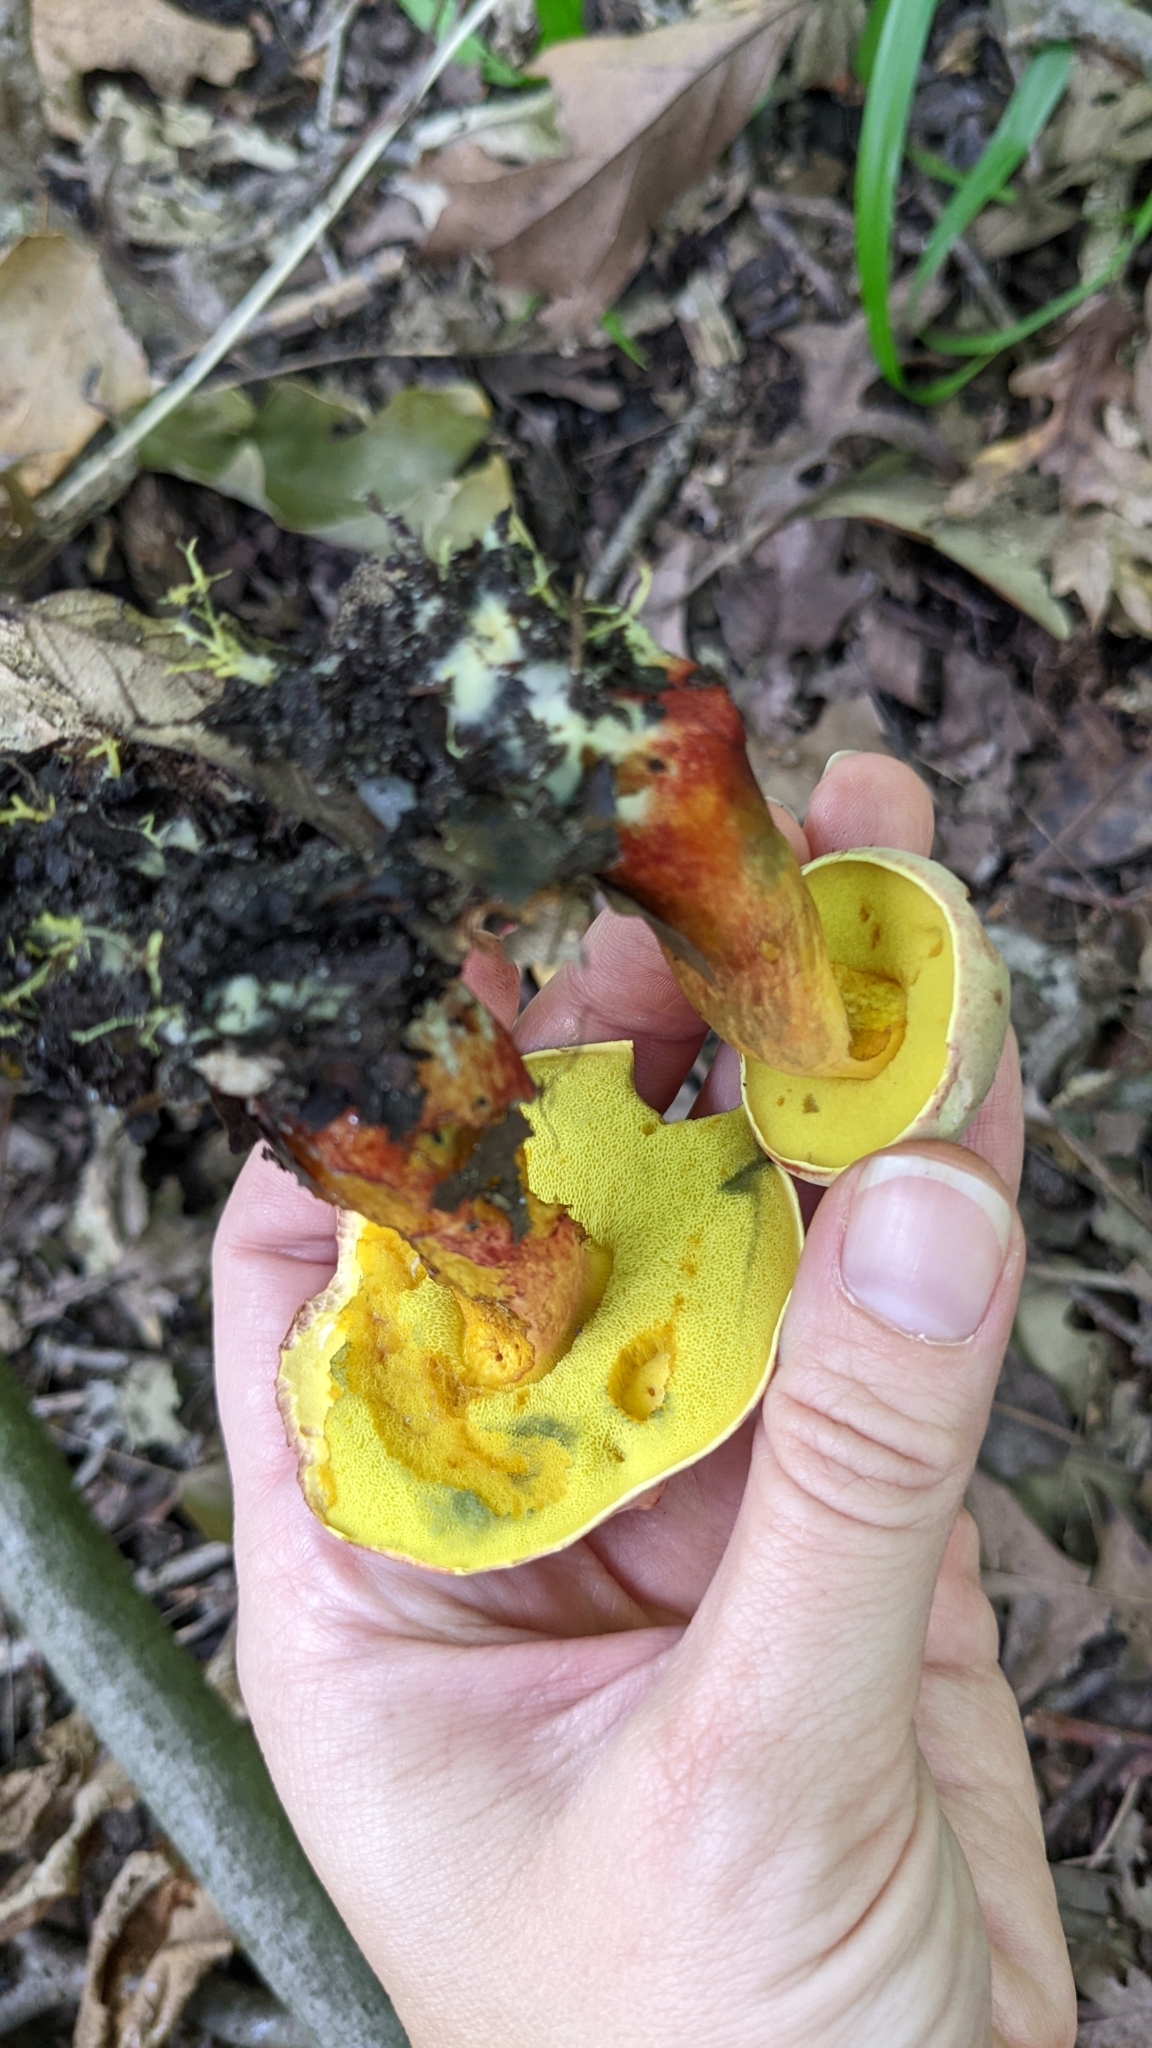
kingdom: Fungi
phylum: Basidiomycota
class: Agaricomycetes
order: Boletales
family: Boletaceae
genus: Pulchroboletus
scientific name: Pulchroboletus sclerotiorum
